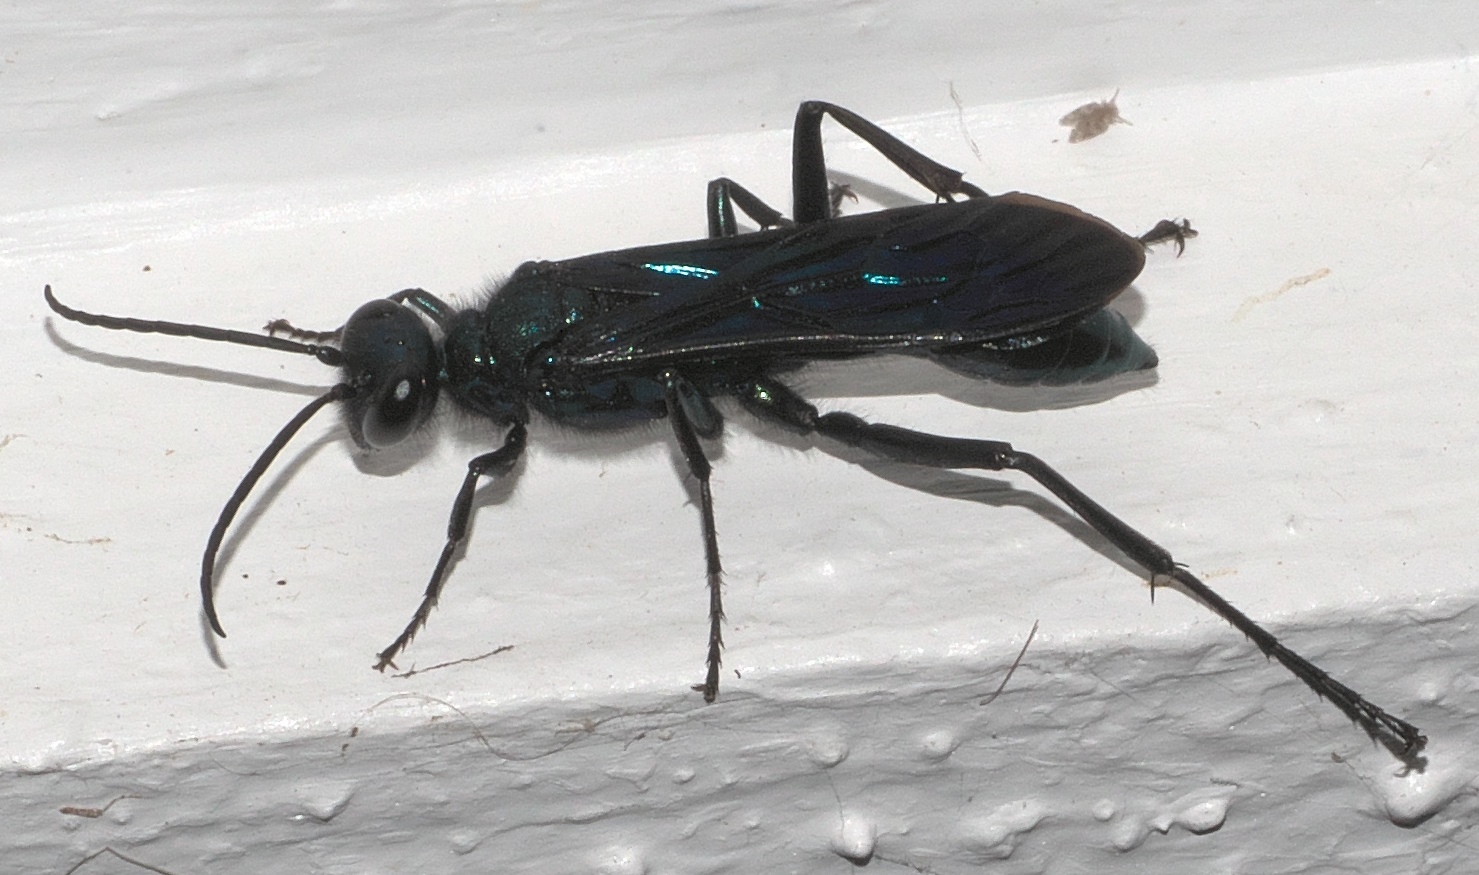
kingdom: Animalia
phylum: Arthropoda
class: Insecta
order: Hymenoptera
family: Sphecidae
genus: Chalybion
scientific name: Chalybion californicum
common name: Mud dauber
